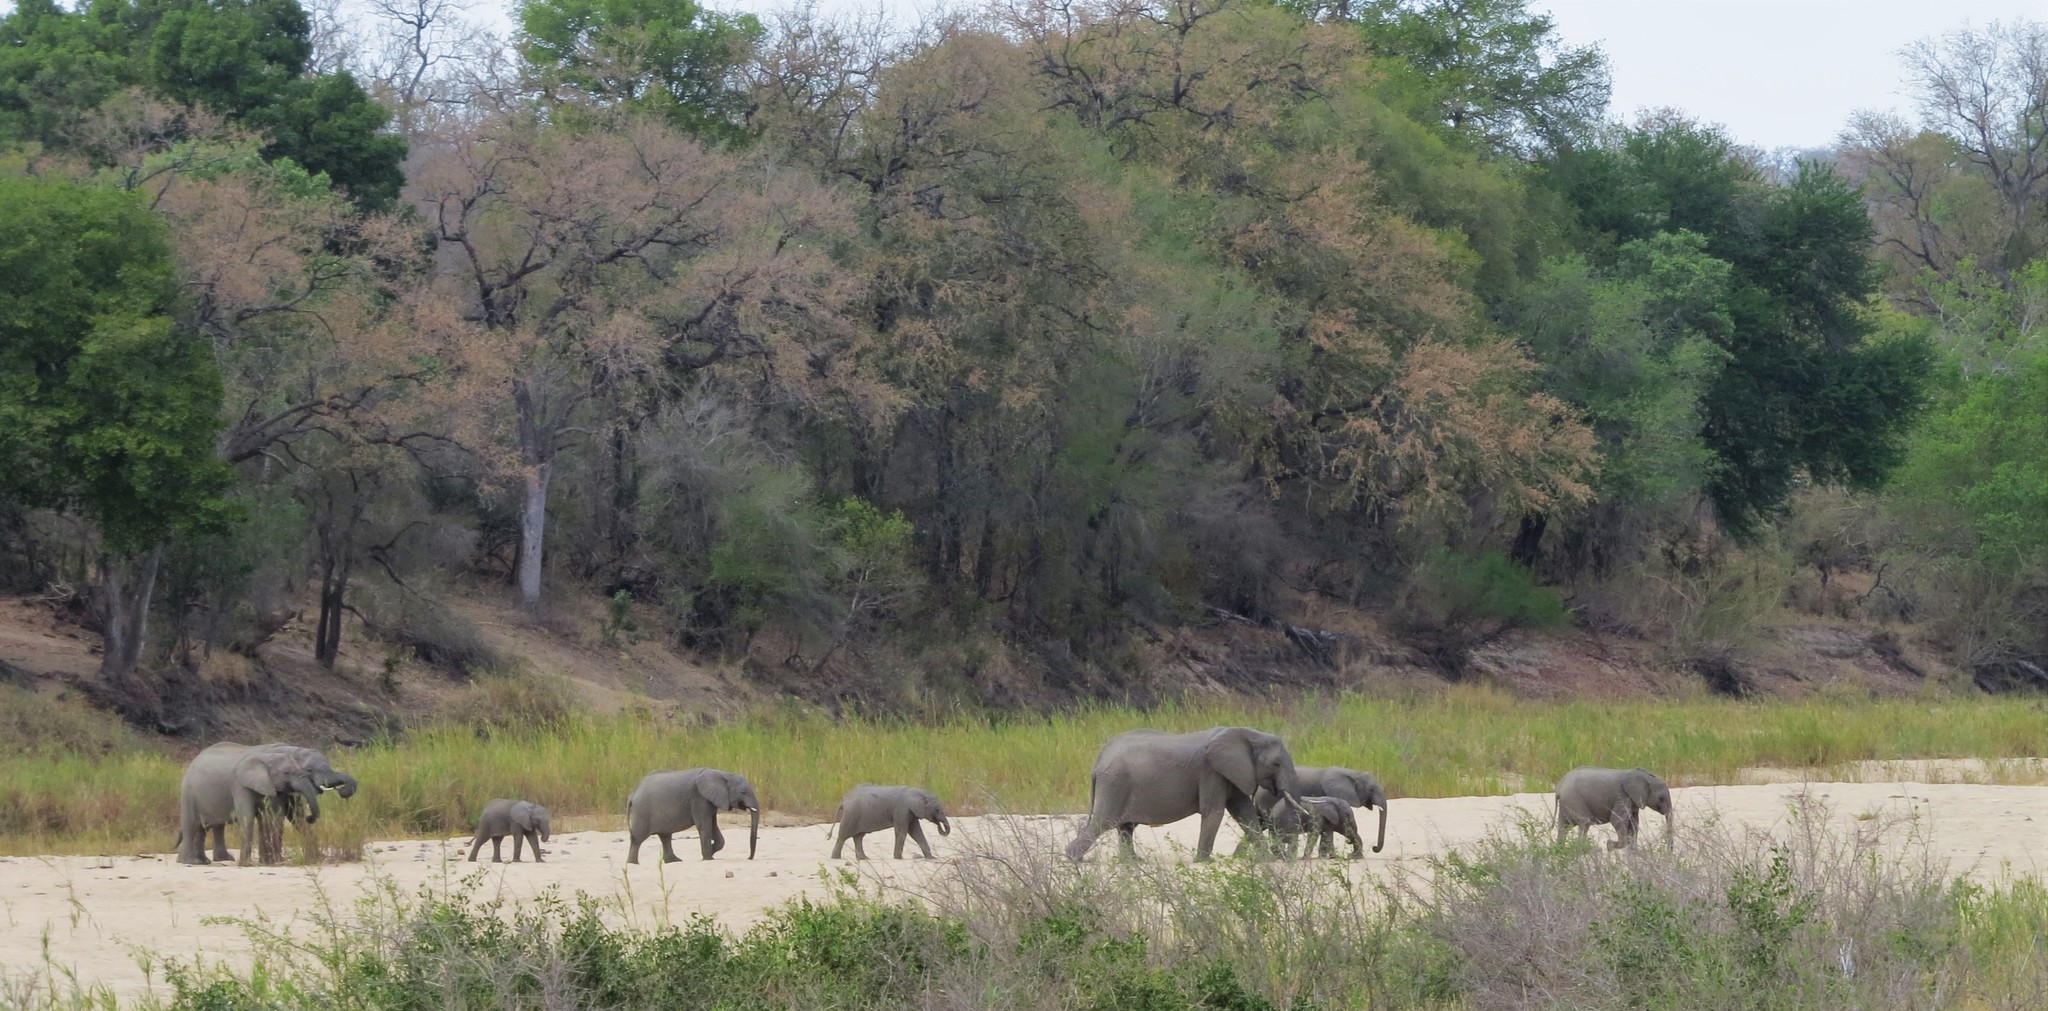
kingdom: Animalia
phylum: Chordata
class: Mammalia
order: Proboscidea
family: Elephantidae
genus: Loxodonta
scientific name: Loxodonta africana
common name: African elephant
